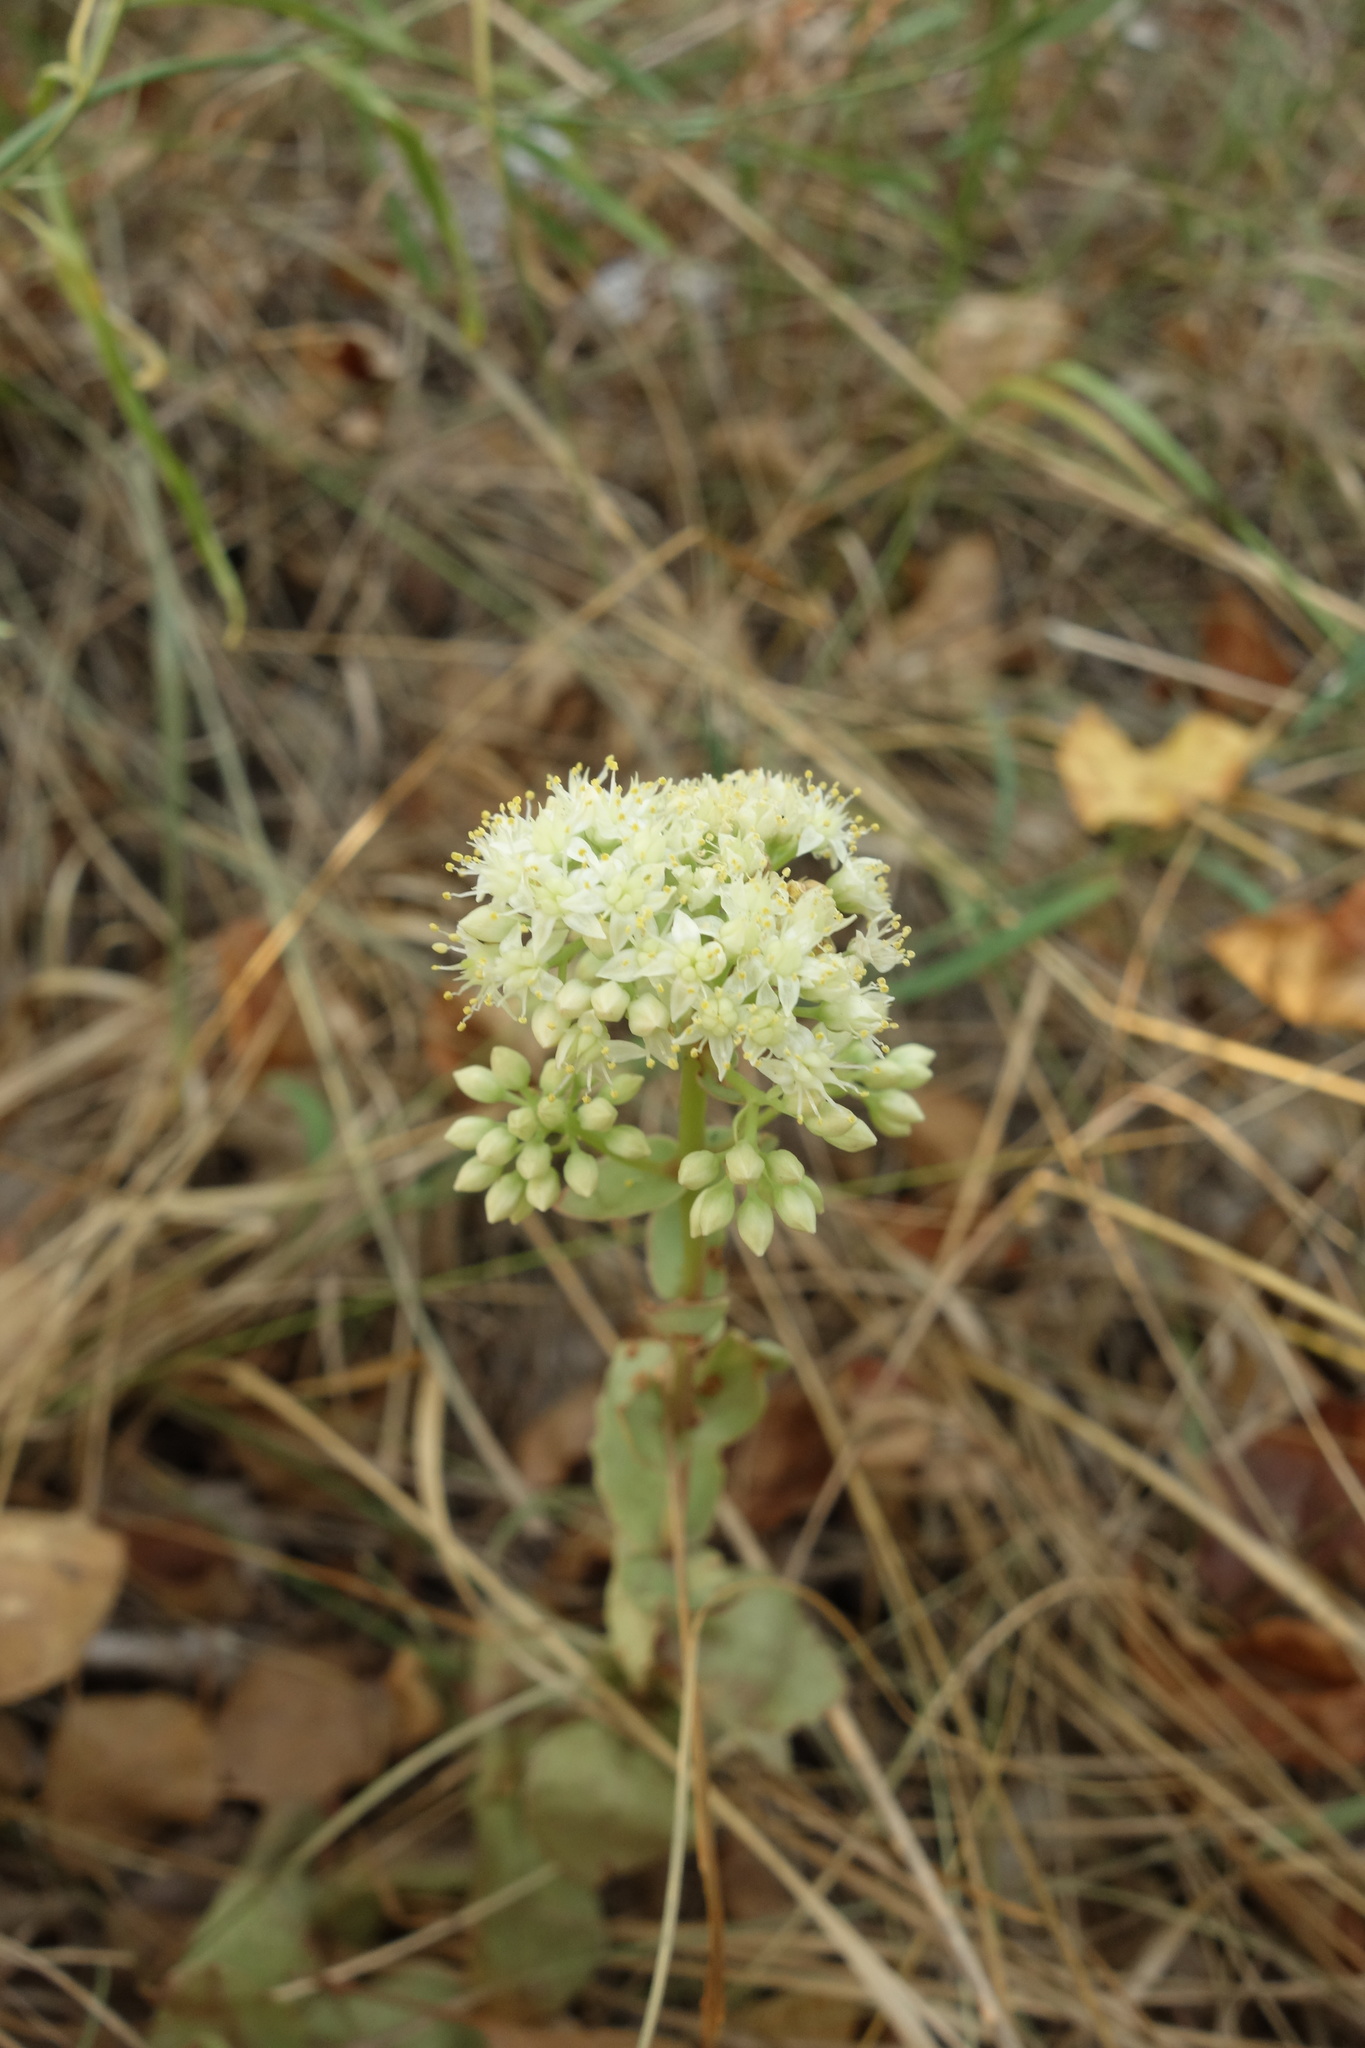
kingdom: Plantae
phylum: Tracheophyta
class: Magnoliopsida
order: Saxifragales
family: Crassulaceae
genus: Hylotelephium
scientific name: Hylotelephium maximum
